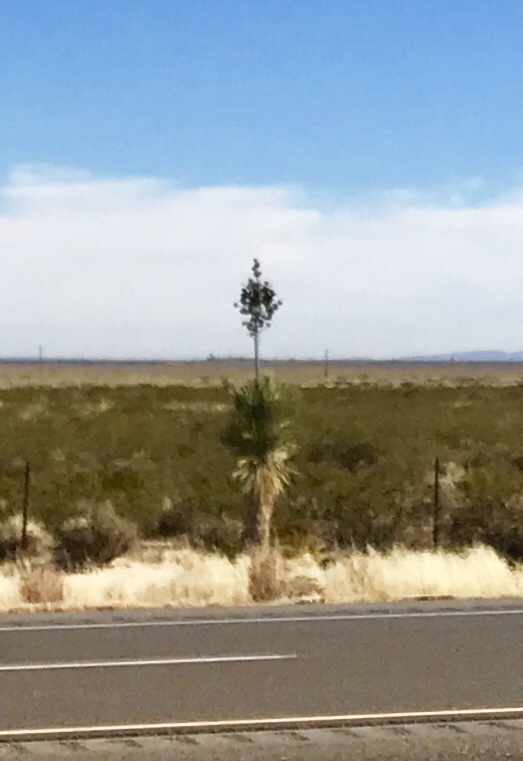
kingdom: Plantae
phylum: Tracheophyta
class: Liliopsida
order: Asparagales
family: Asparagaceae
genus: Yucca
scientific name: Yucca elata
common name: Palmella
